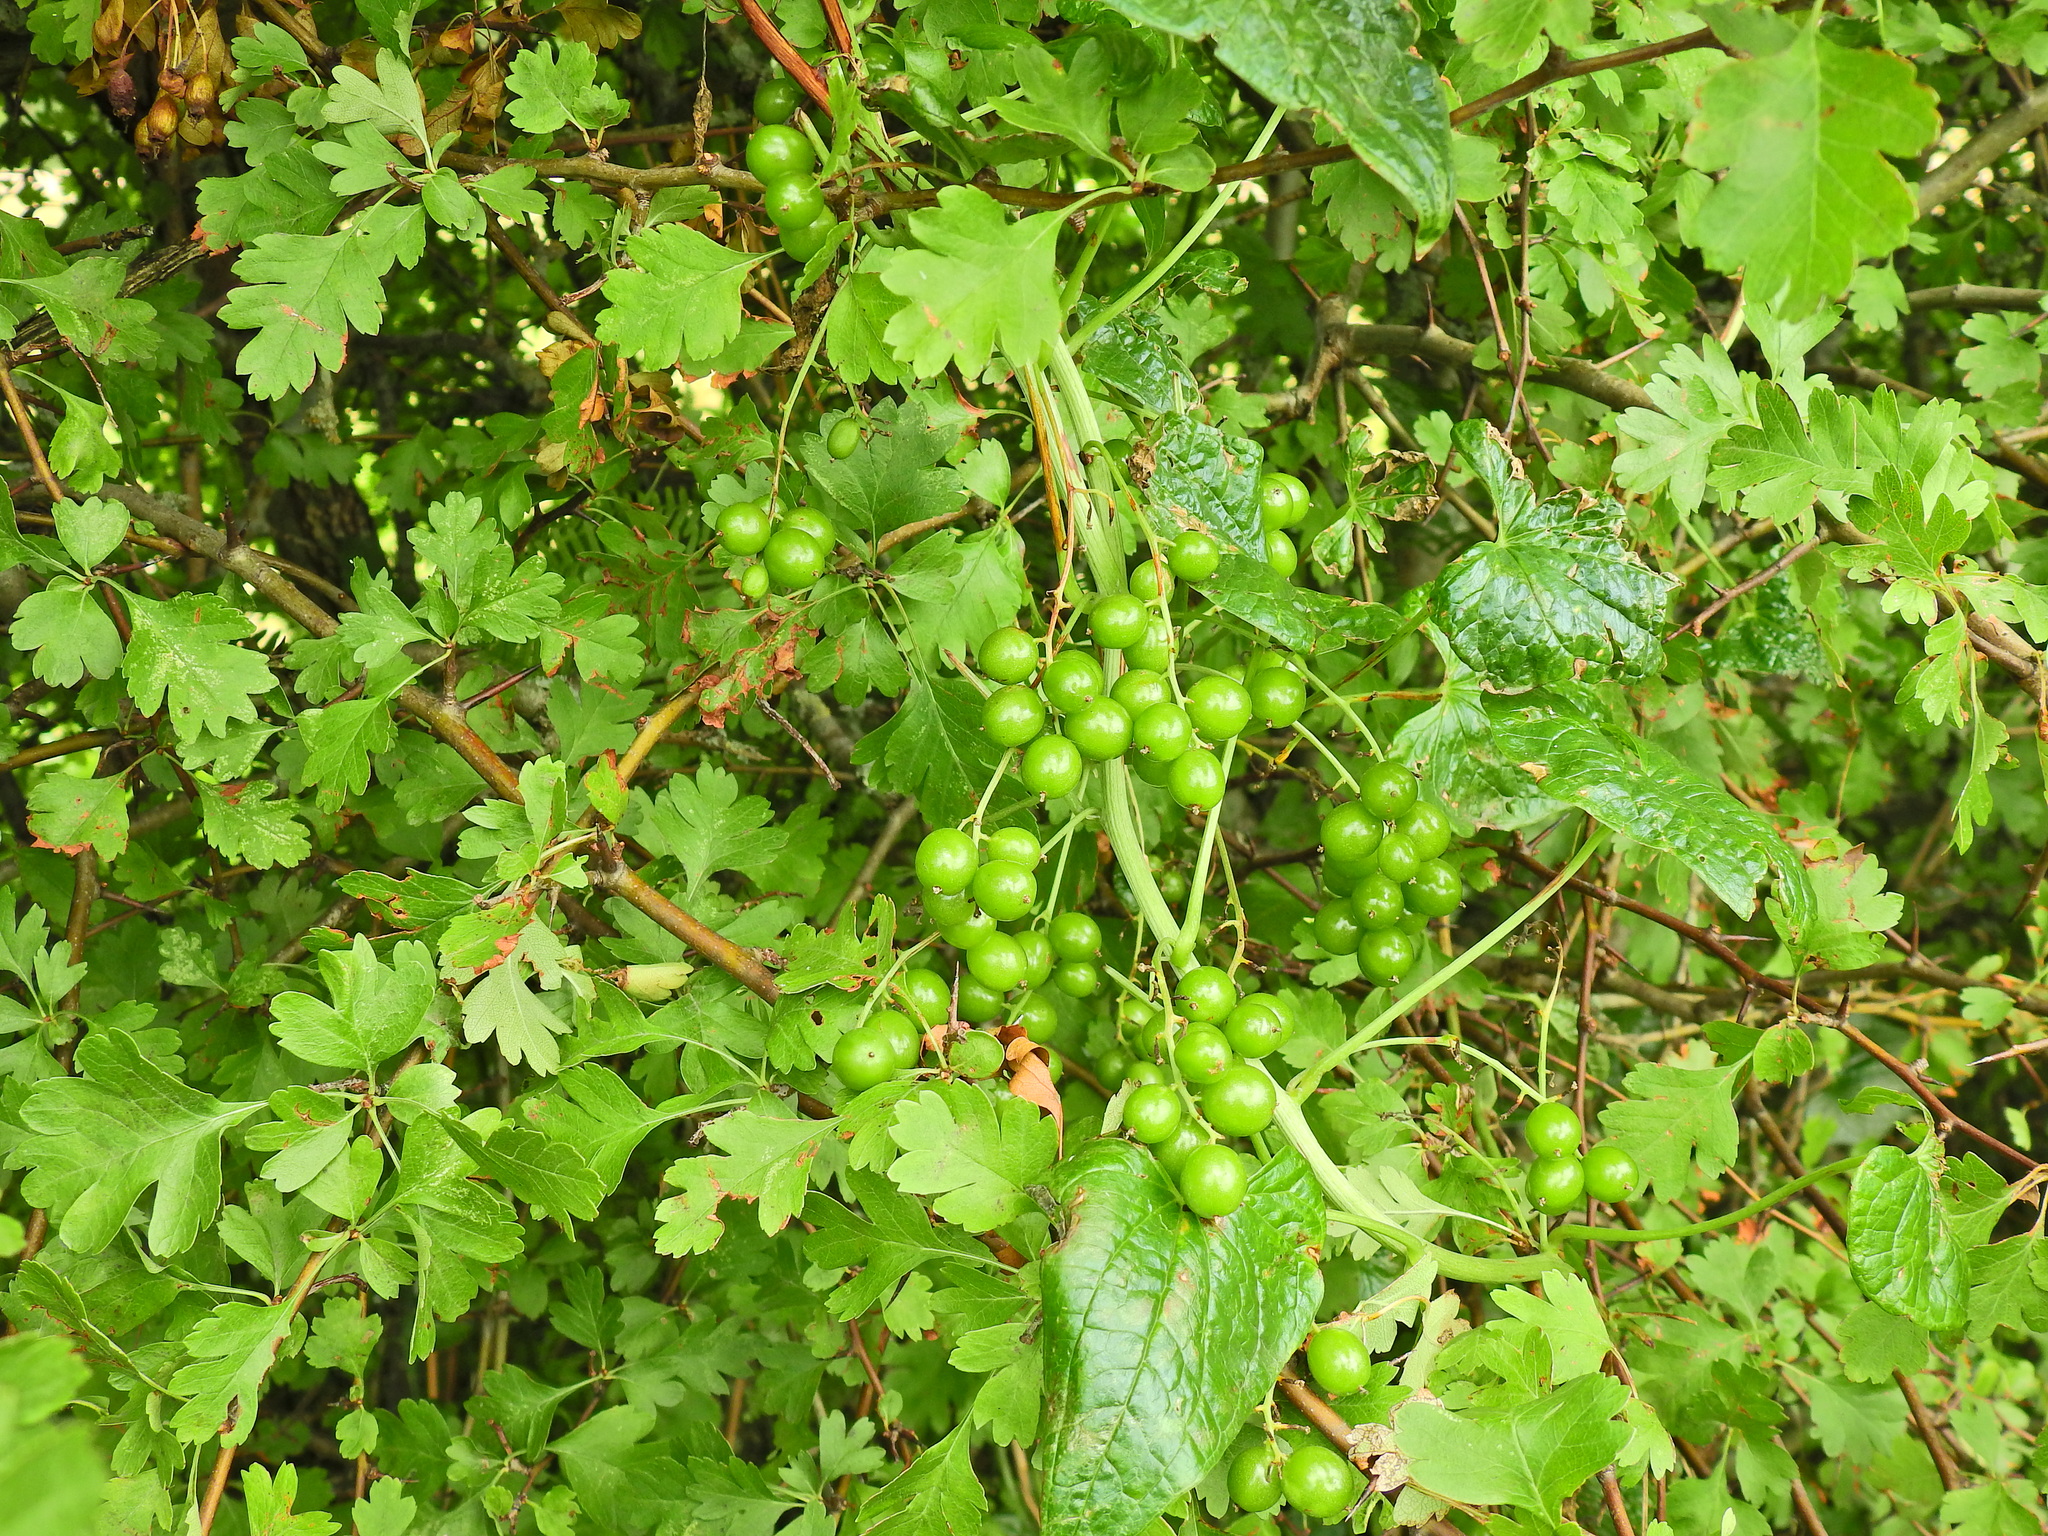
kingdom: Plantae
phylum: Tracheophyta
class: Liliopsida
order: Dioscoreales
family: Dioscoreaceae
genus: Dioscorea
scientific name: Dioscorea communis
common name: Black-bindweed
